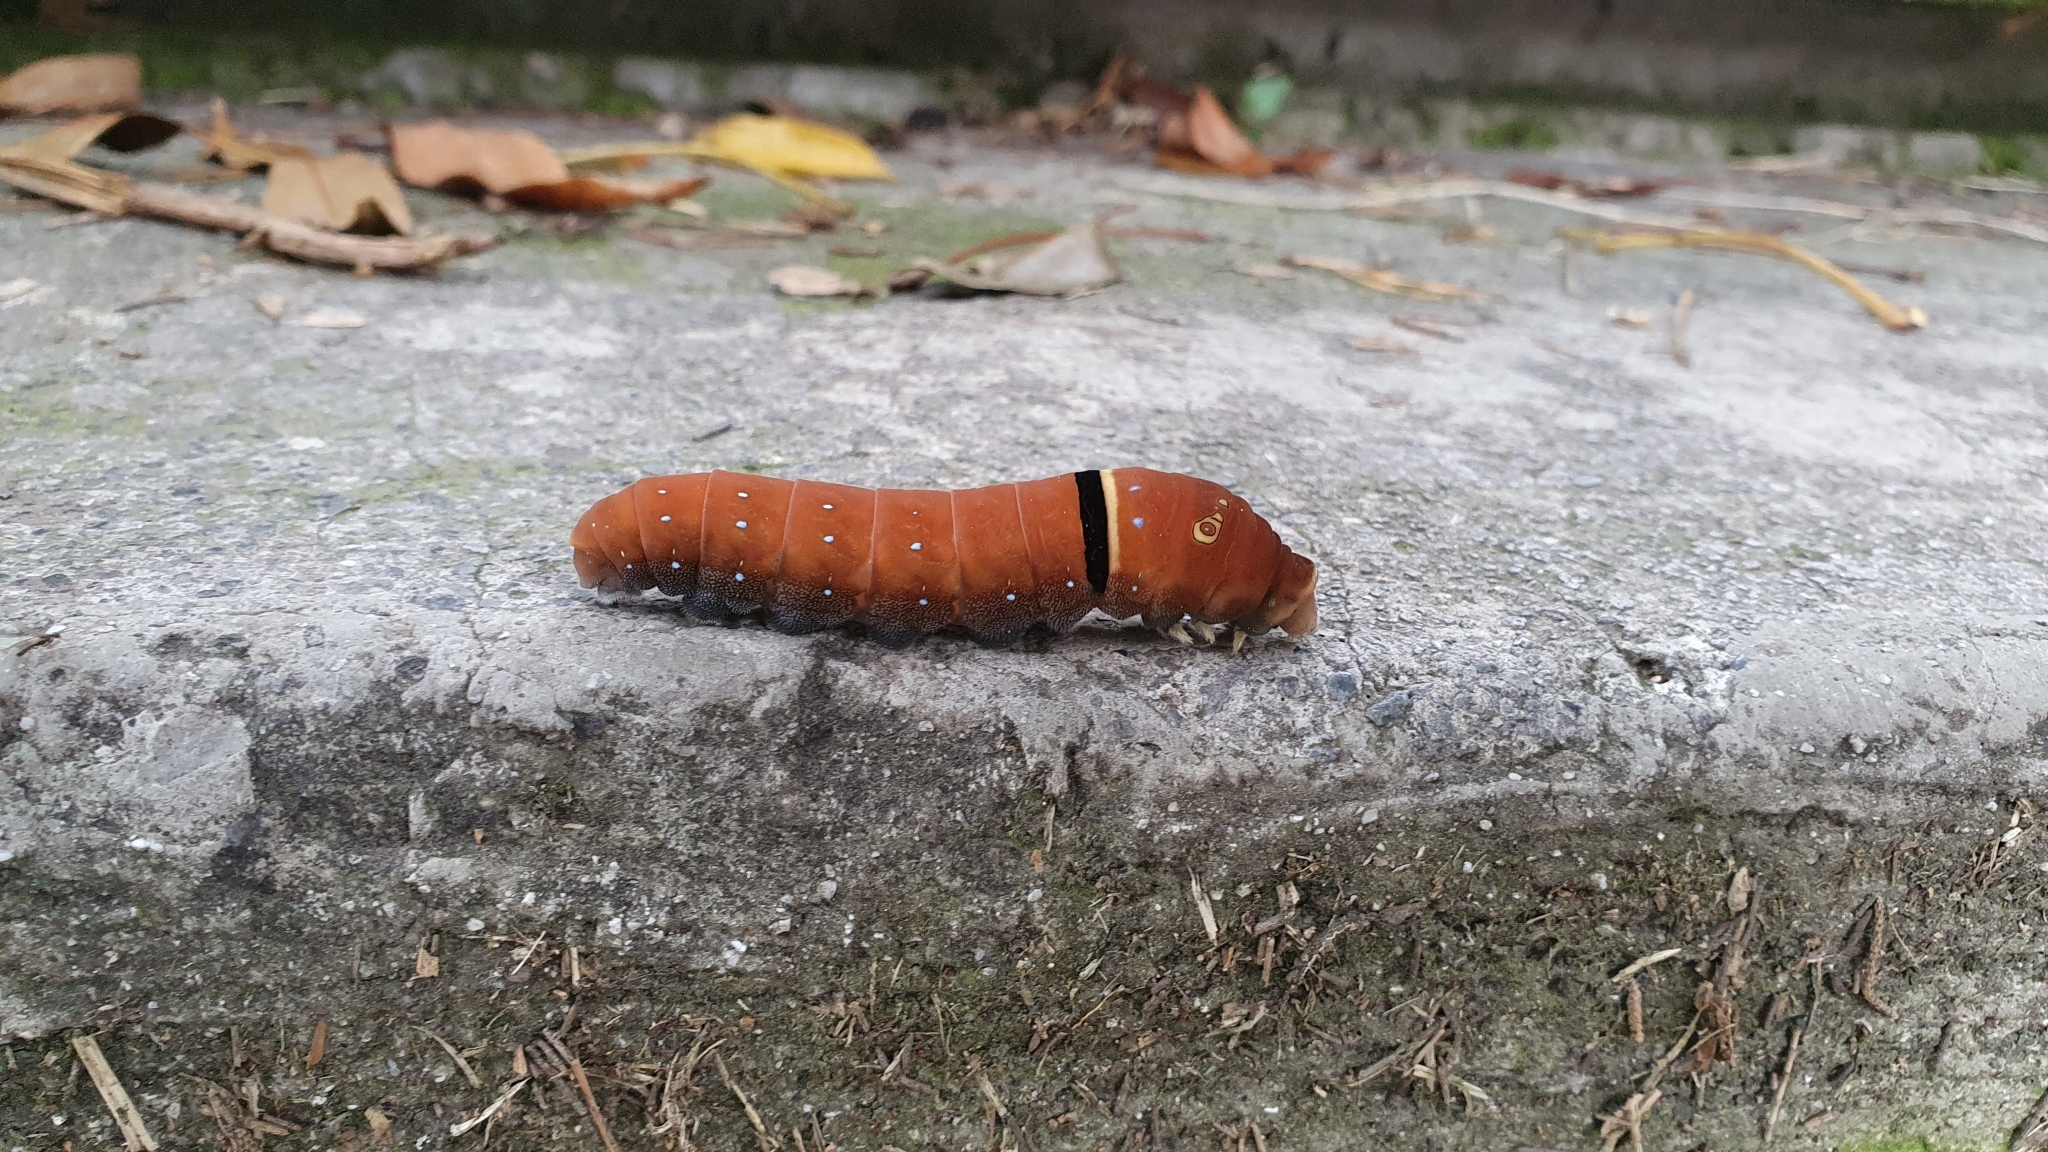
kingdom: Animalia
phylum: Arthropoda
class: Insecta
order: Lepidoptera
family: Papilionidae
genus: Papilio
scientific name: Papilio multicaudata
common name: Two-tailed tiger swallowtail
